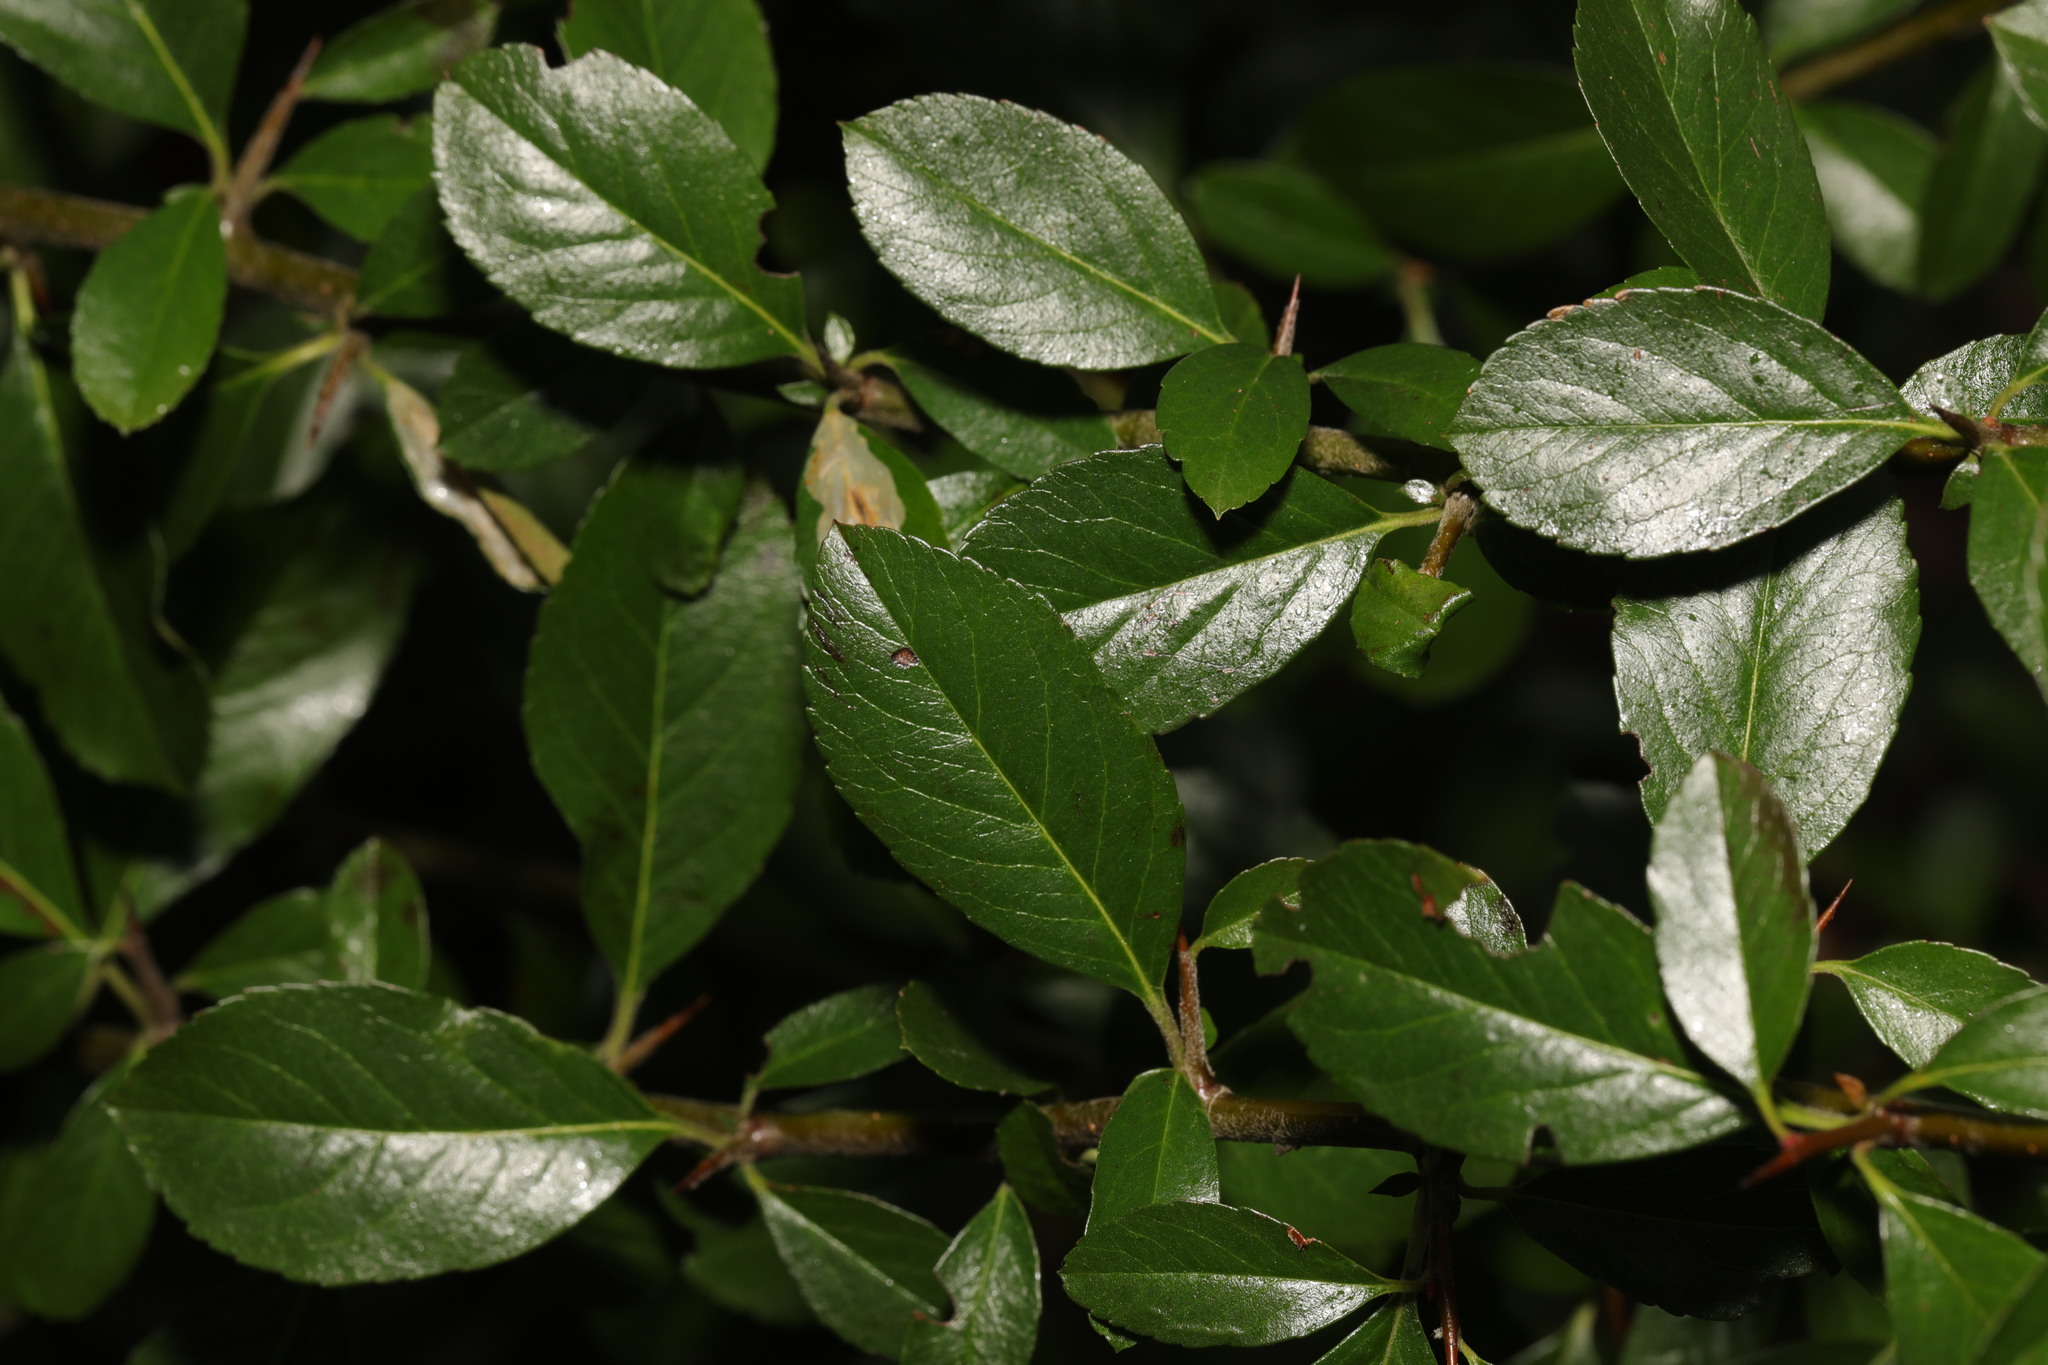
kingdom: Plantae
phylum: Tracheophyta
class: Magnoliopsida
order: Rosales
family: Rosaceae
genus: Pyracantha
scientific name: Pyracantha coccinea
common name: Firethorn
